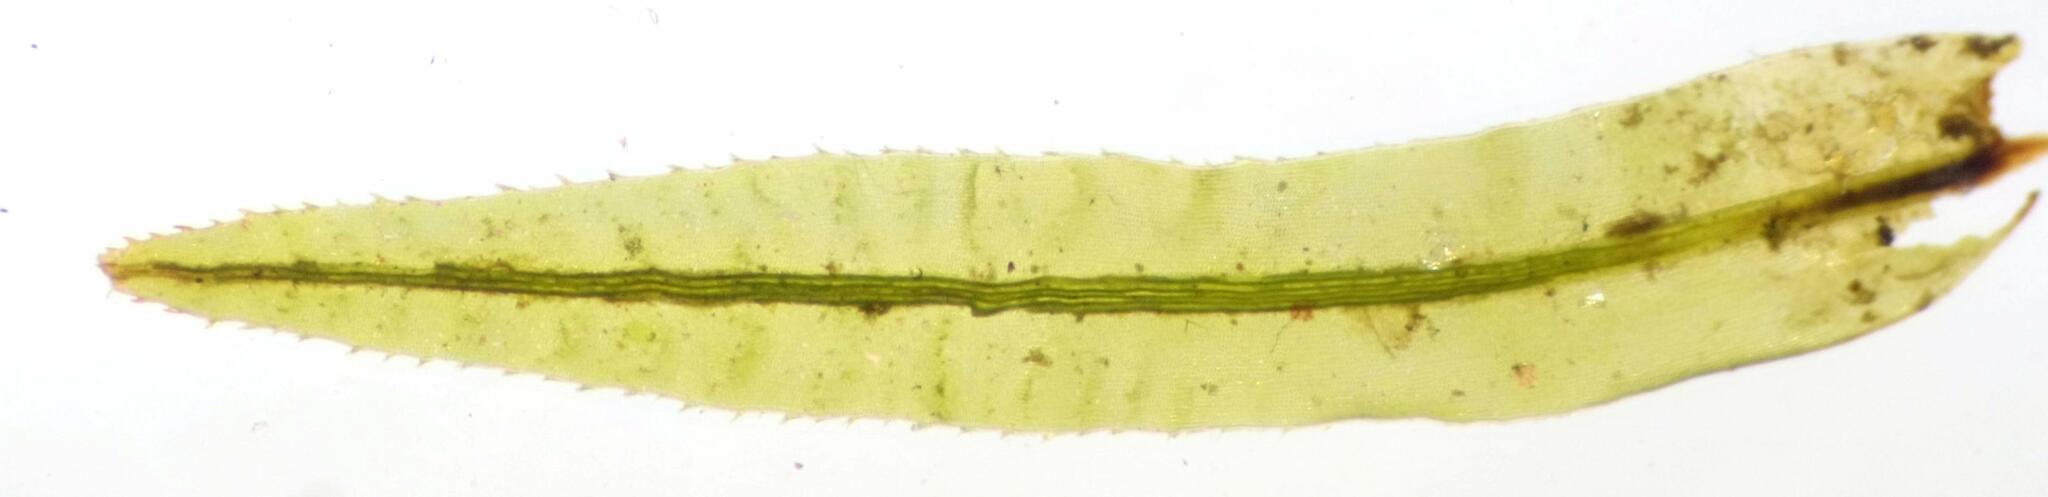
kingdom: Plantae
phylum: Bryophyta
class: Polytrichopsida
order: Polytrichales
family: Polytrichaceae
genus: Atrichum
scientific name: Atrichum undulatum
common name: Common smoothcap
